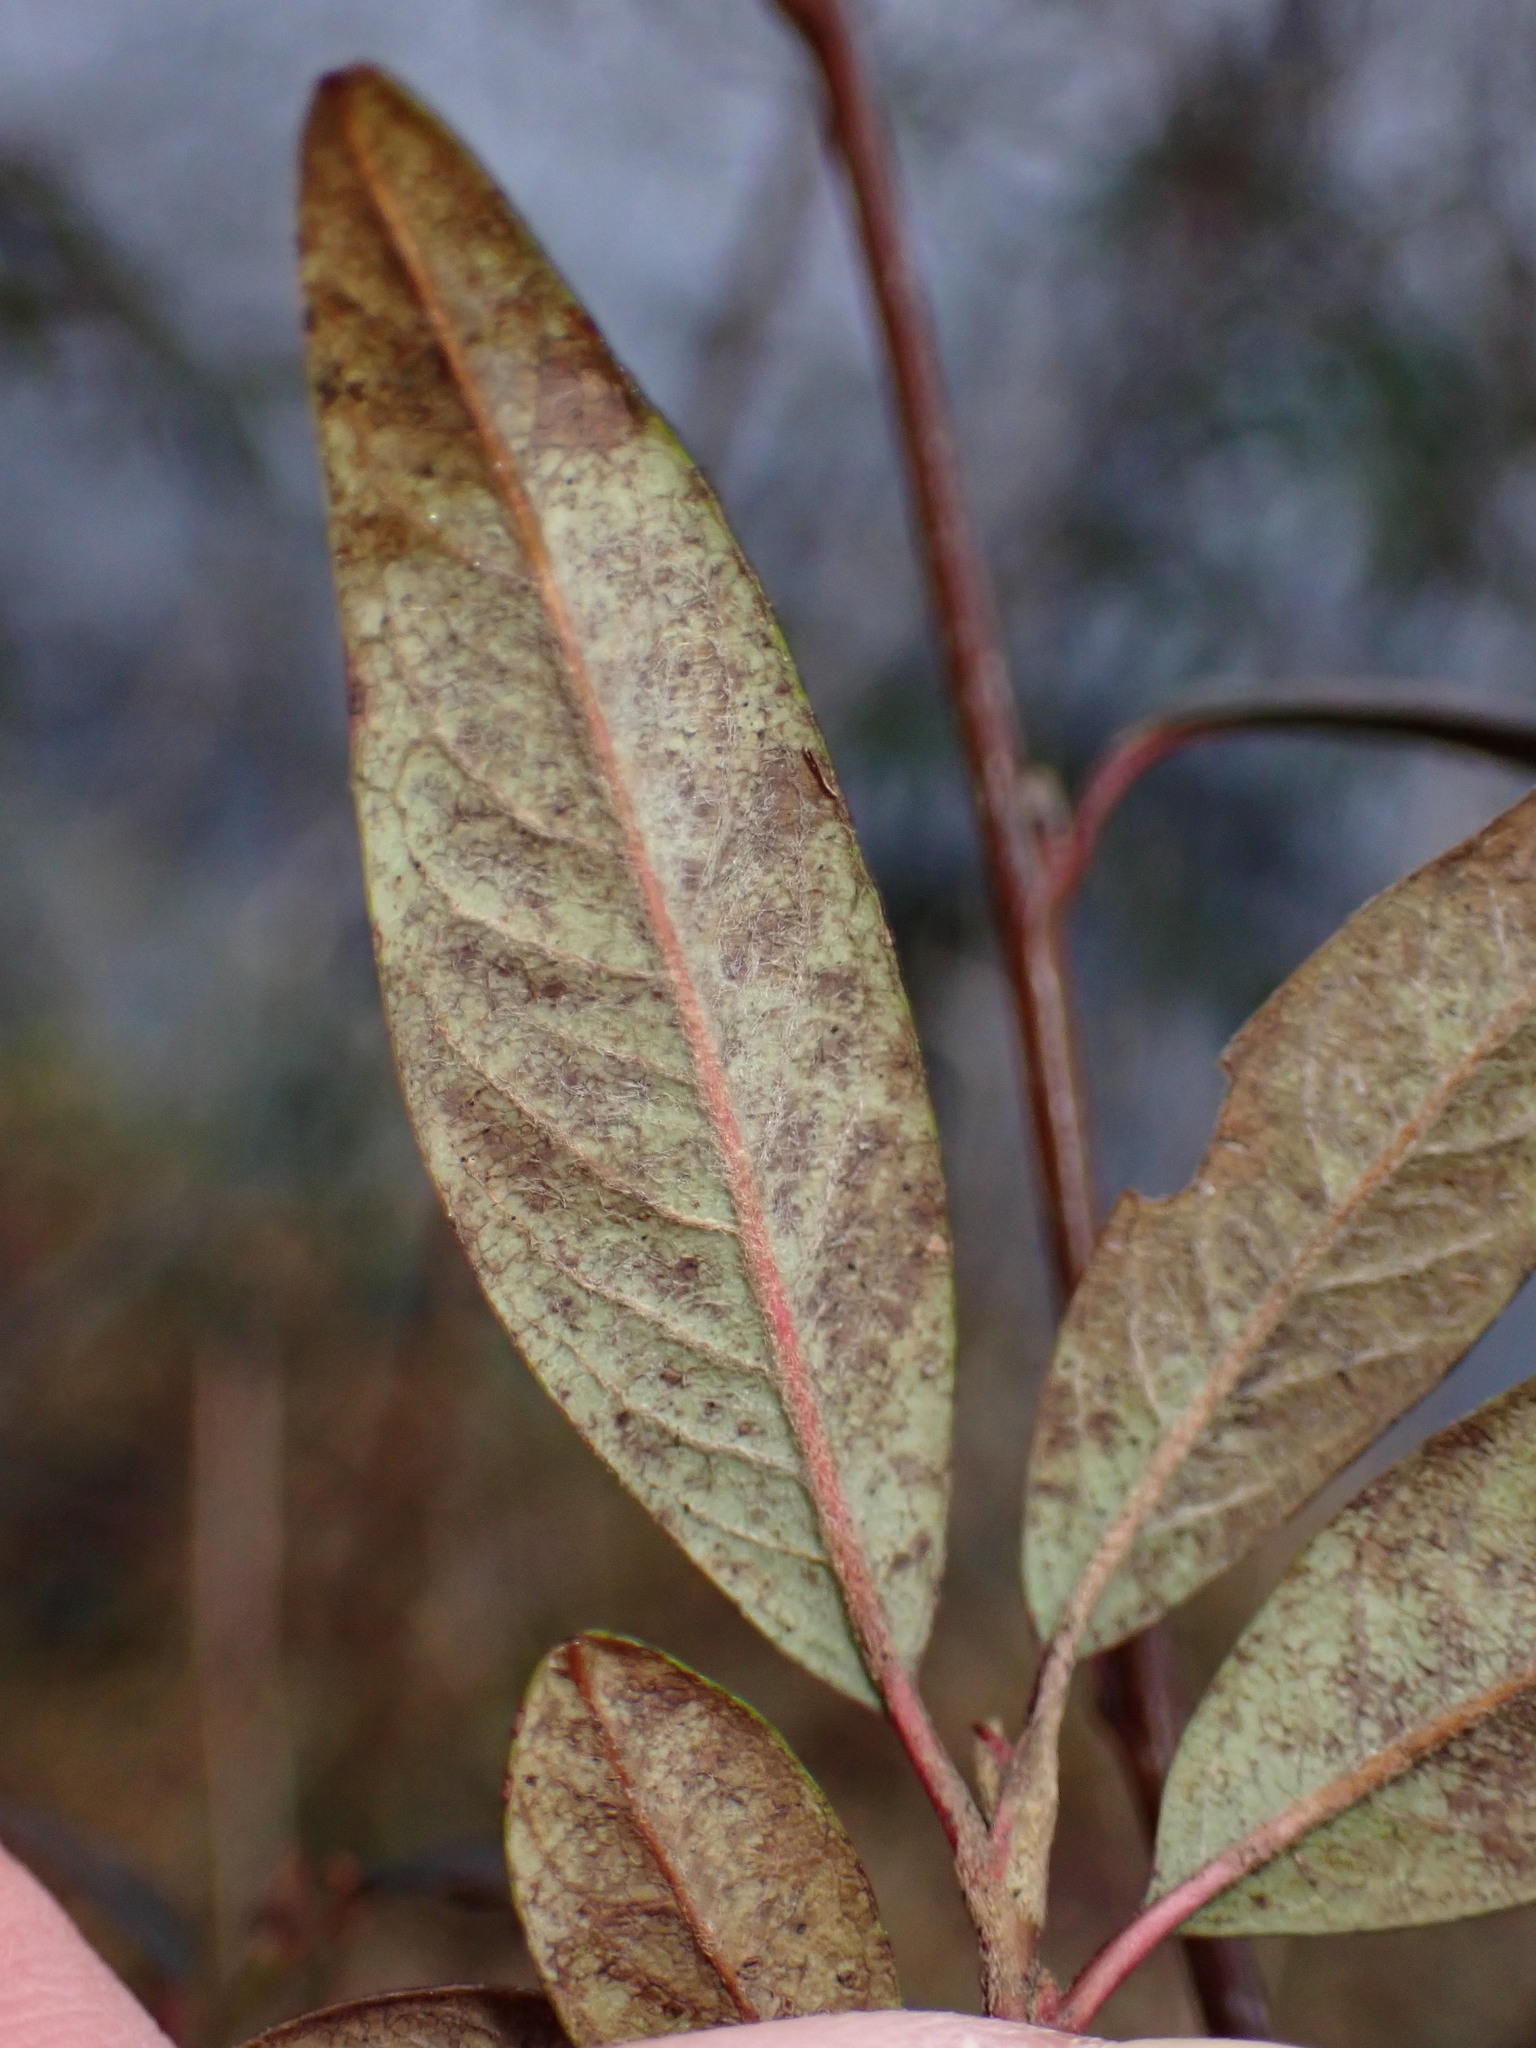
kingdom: Plantae
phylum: Tracheophyta
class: Magnoliopsida
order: Rosales
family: Rosaceae
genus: Cotoneaster
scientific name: Cotoneaster salicifolius
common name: Willow-leaved cotoneaster
